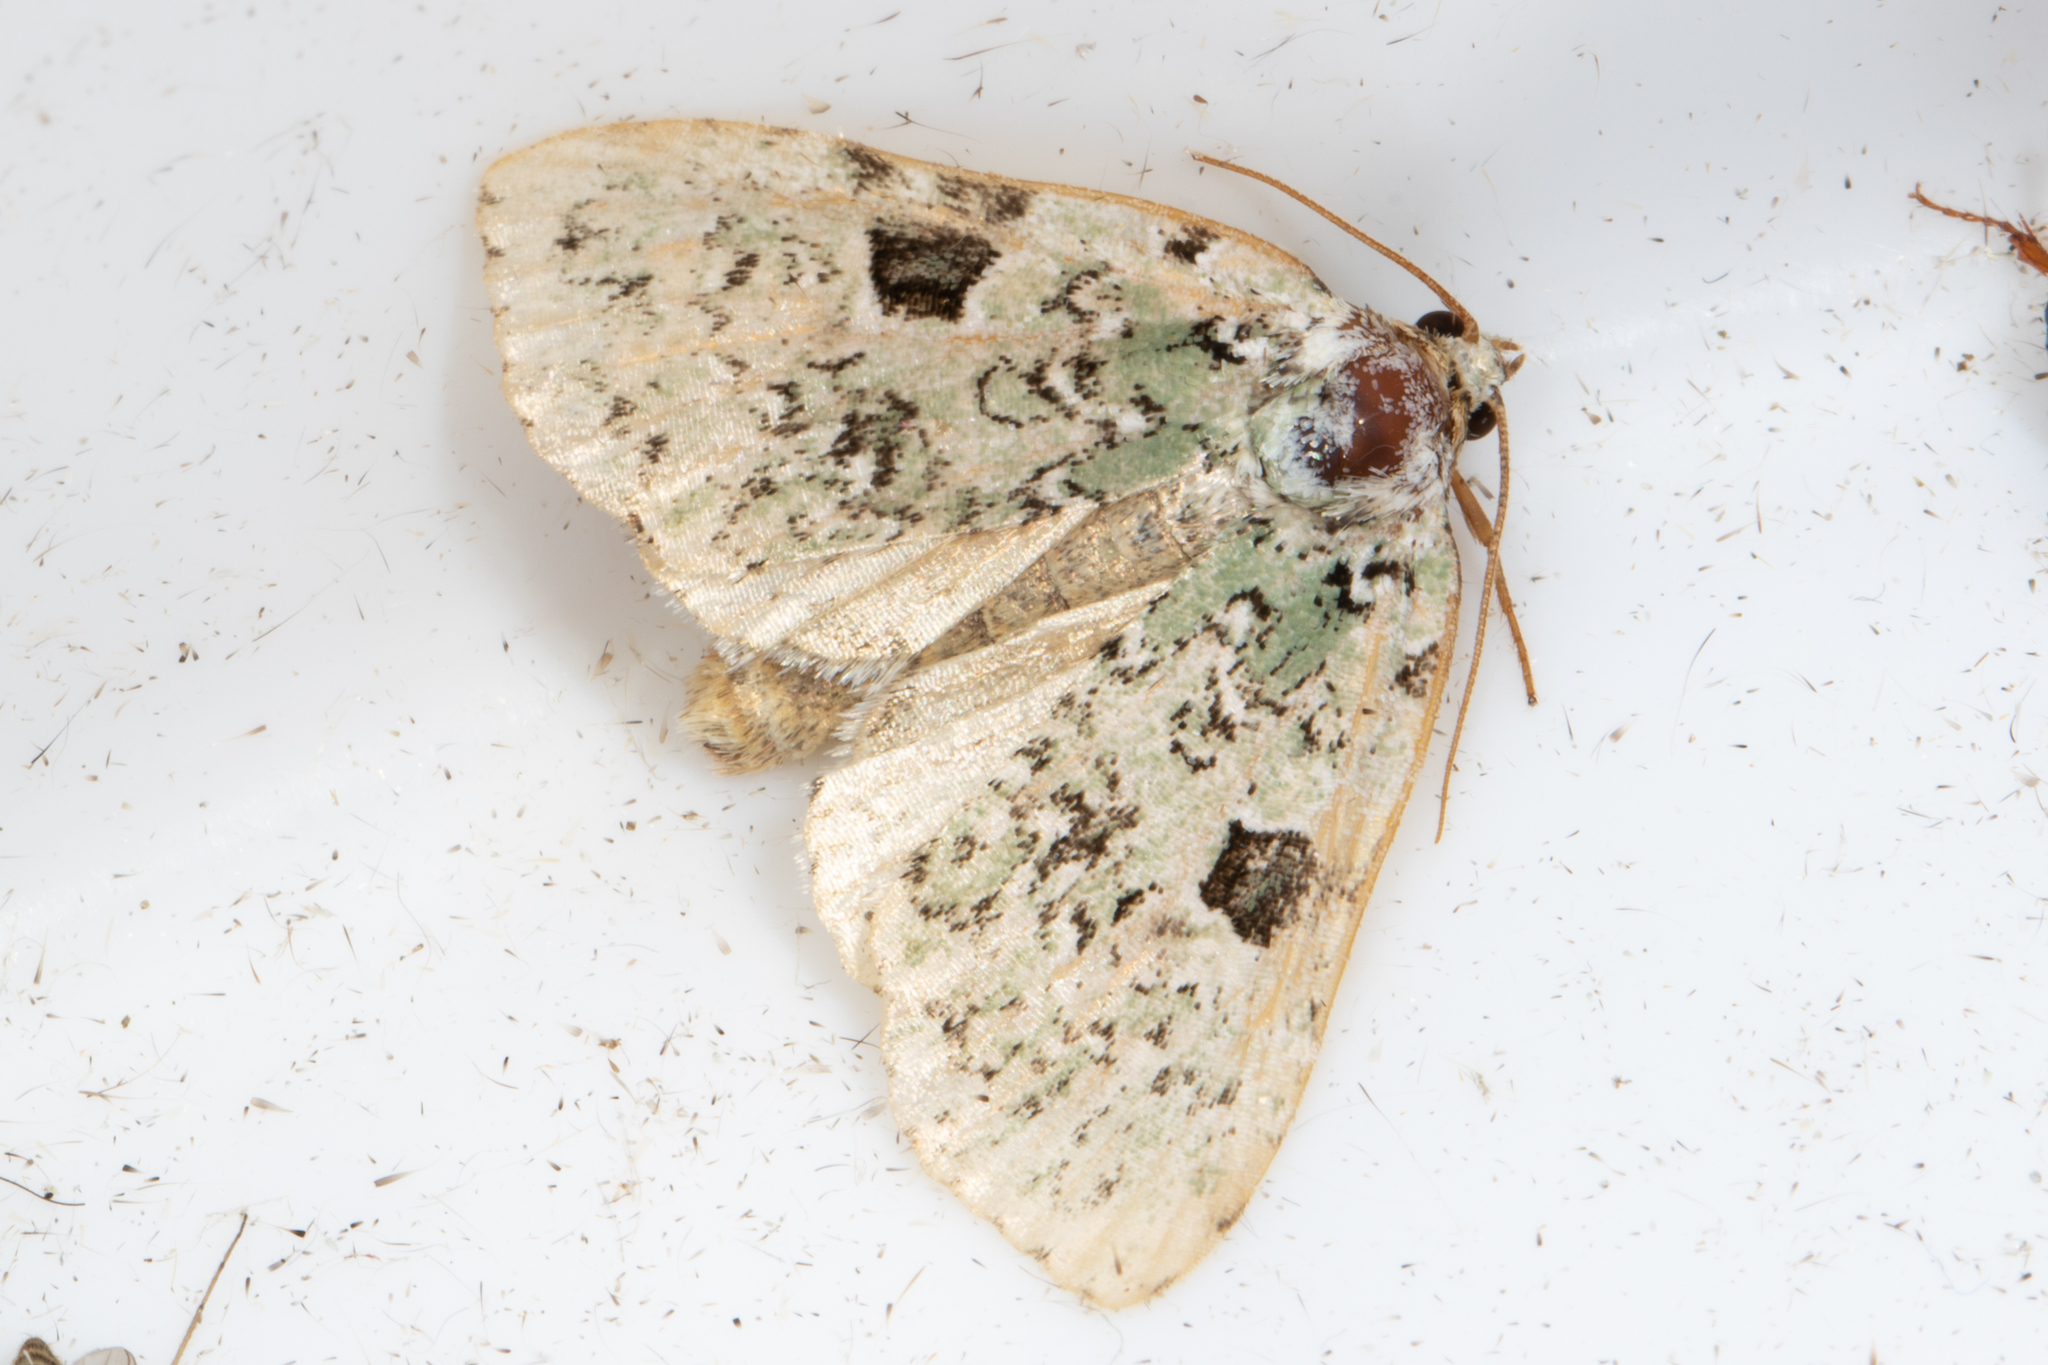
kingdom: Animalia
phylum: Arthropoda
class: Insecta
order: Lepidoptera
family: Noctuidae
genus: Leuconycta
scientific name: Leuconycta diphteroides
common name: Green leuconycta moth
